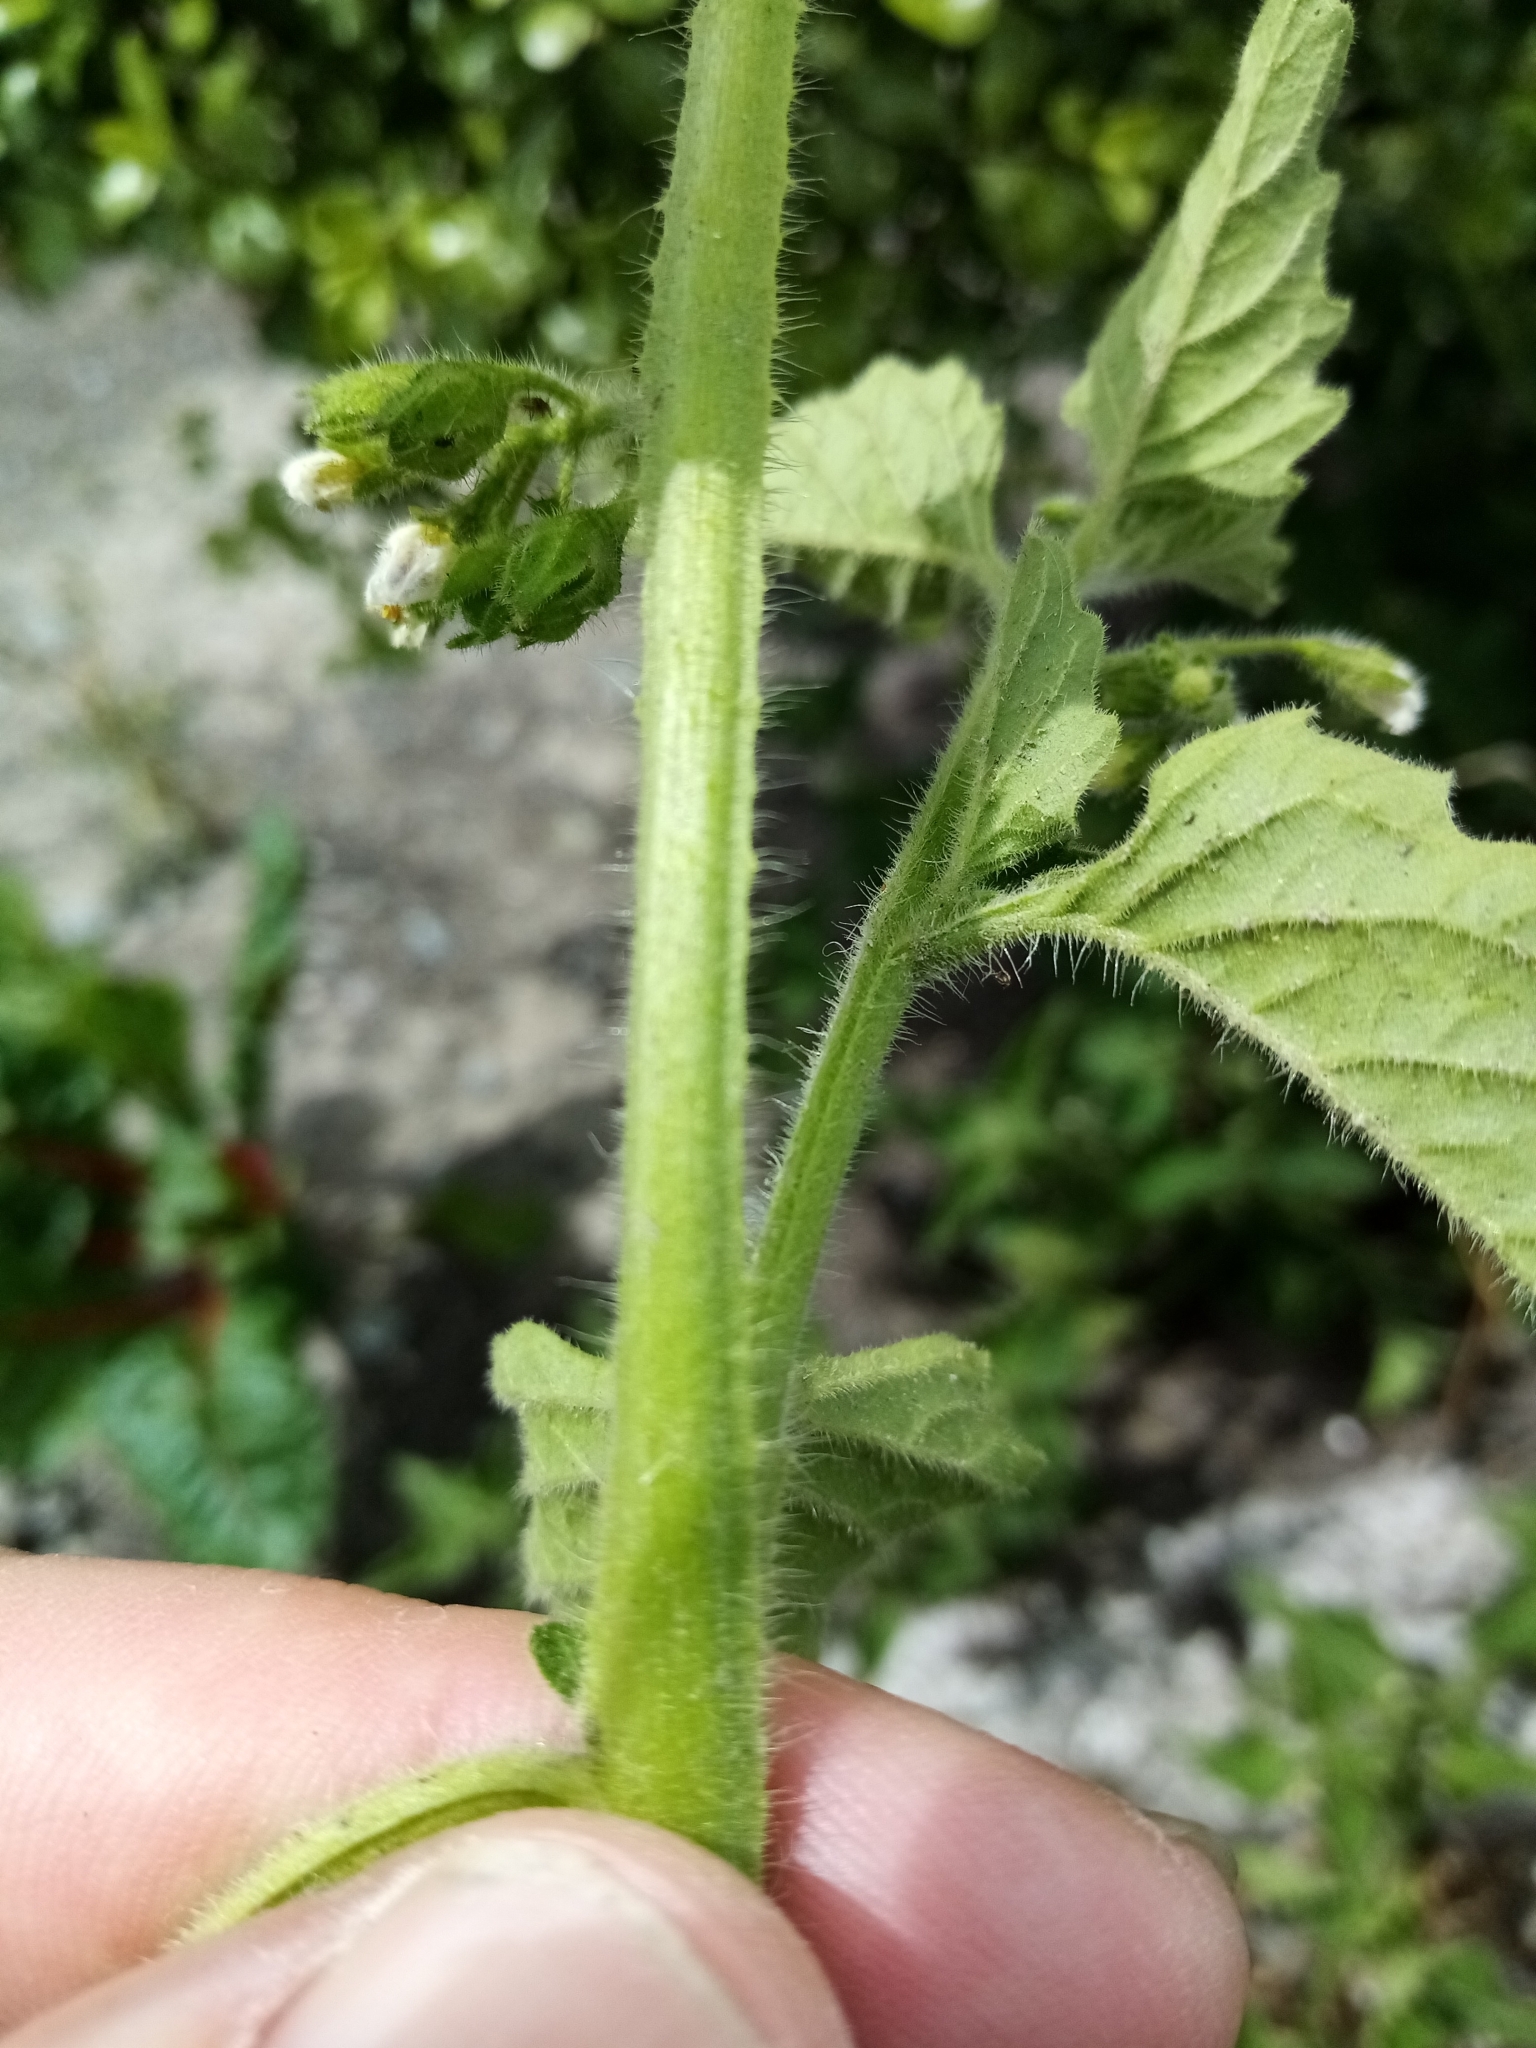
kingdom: Plantae
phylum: Tracheophyta
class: Magnoliopsida
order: Solanales
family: Solanaceae
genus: Solanum
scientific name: Solanum nitidibaccatum
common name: Hairy nightshade
